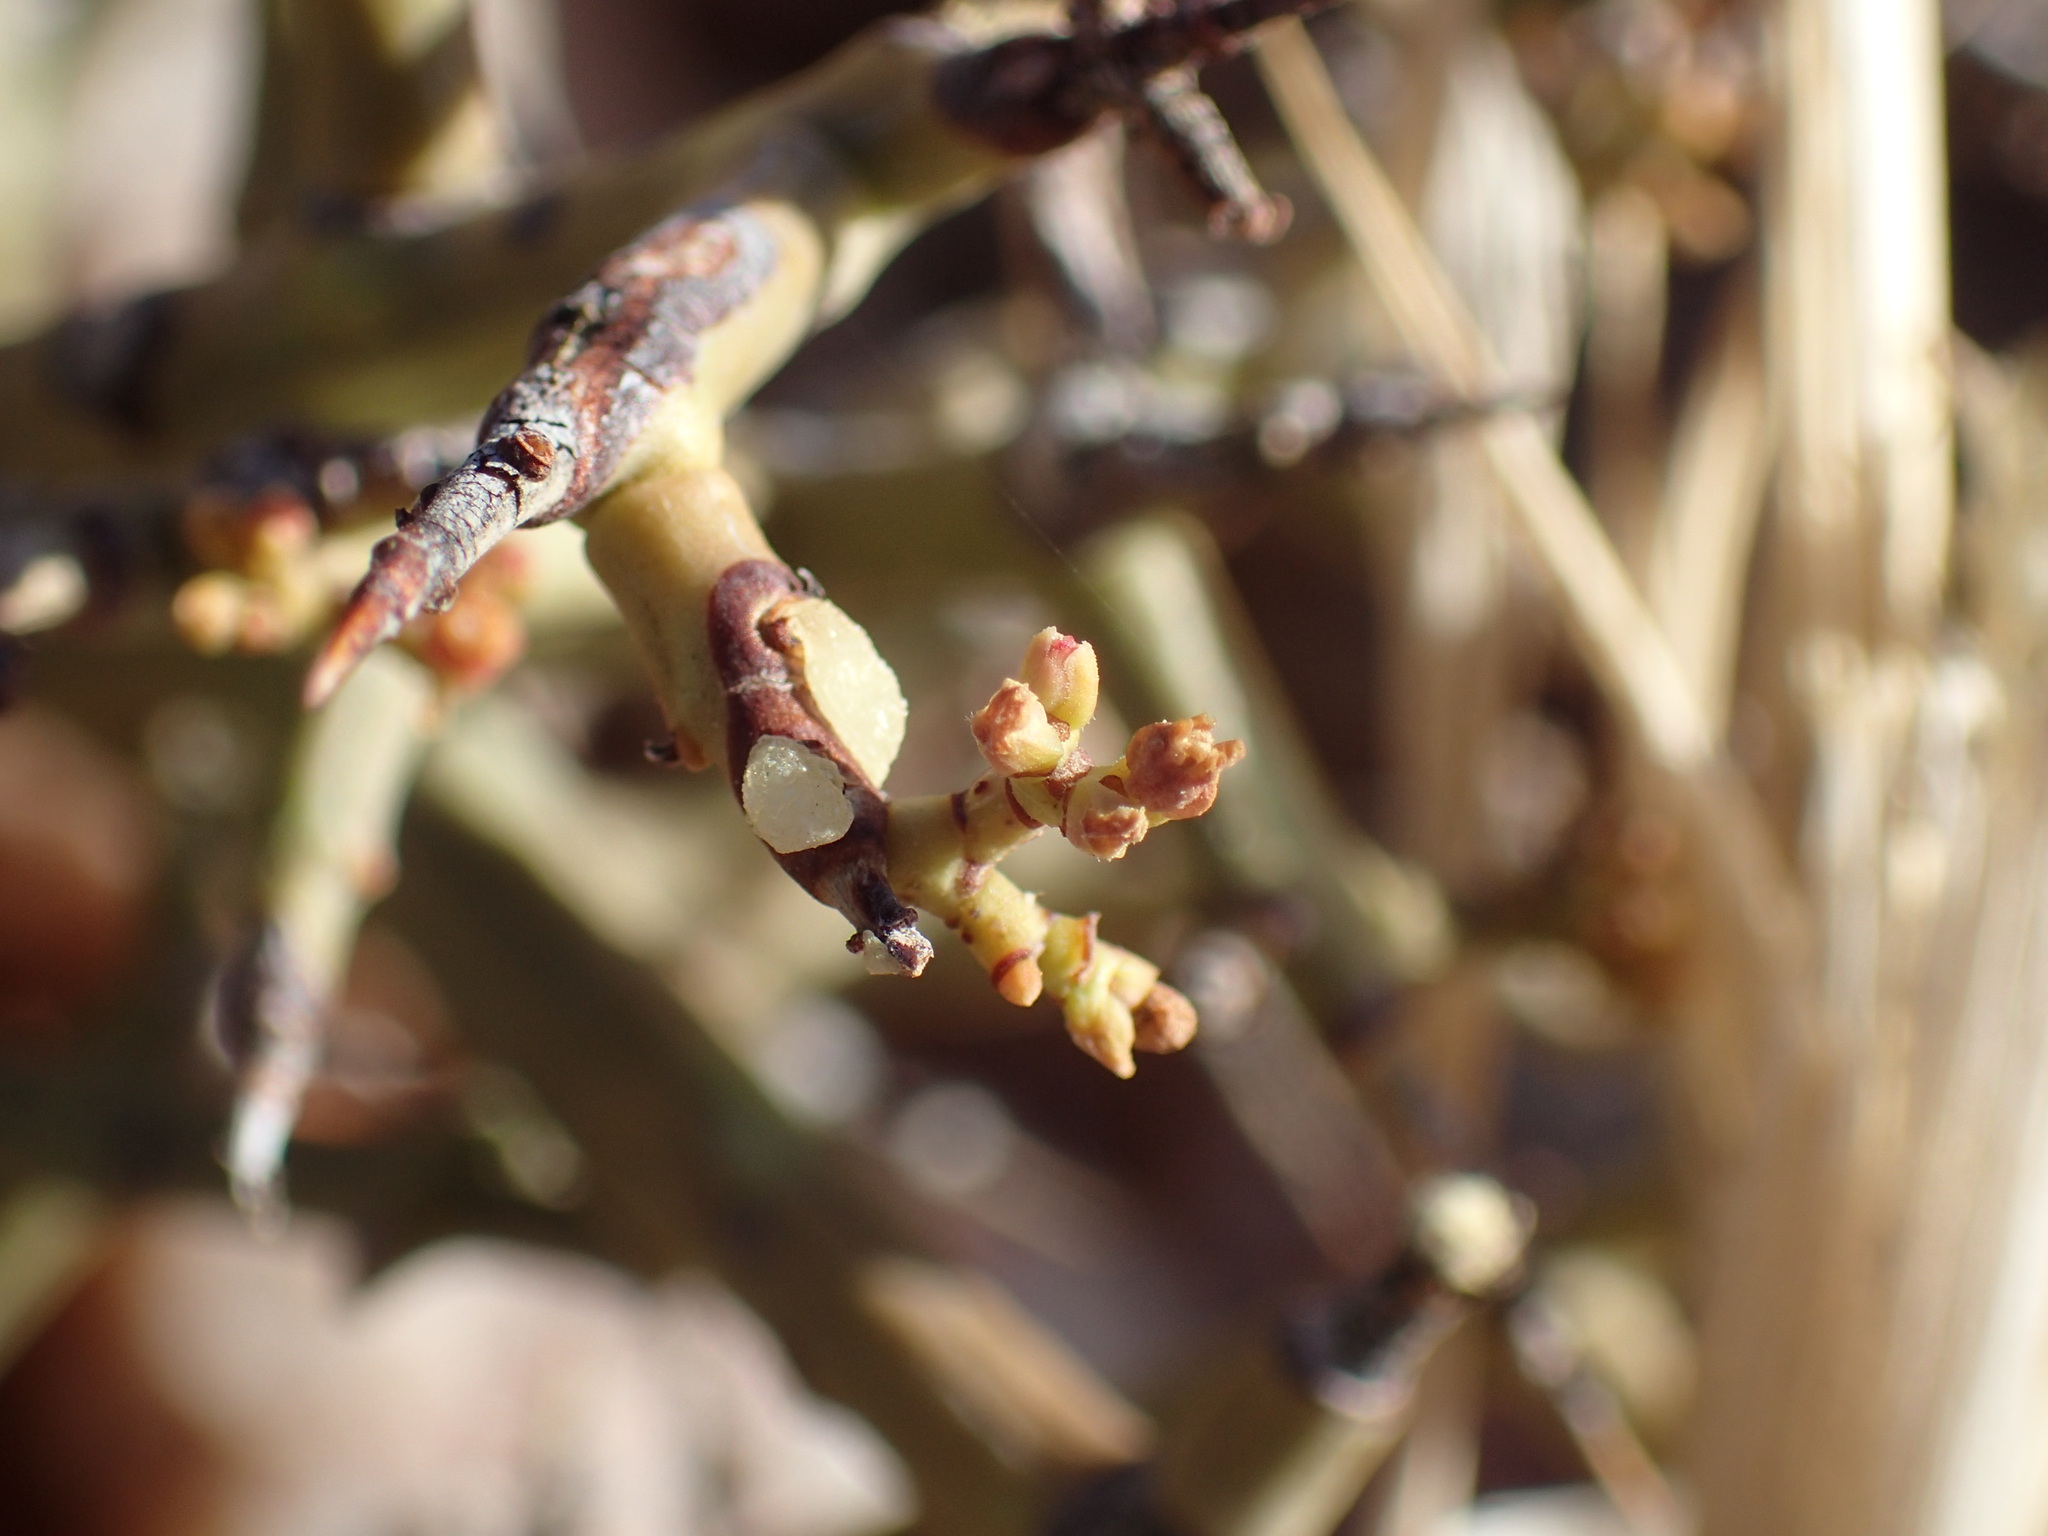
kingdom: Plantae
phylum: Tracheophyta
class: Magnoliopsida
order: Malpighiales
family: Euphorbiaceae
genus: Euphorbia
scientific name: Euphorbia spinea
